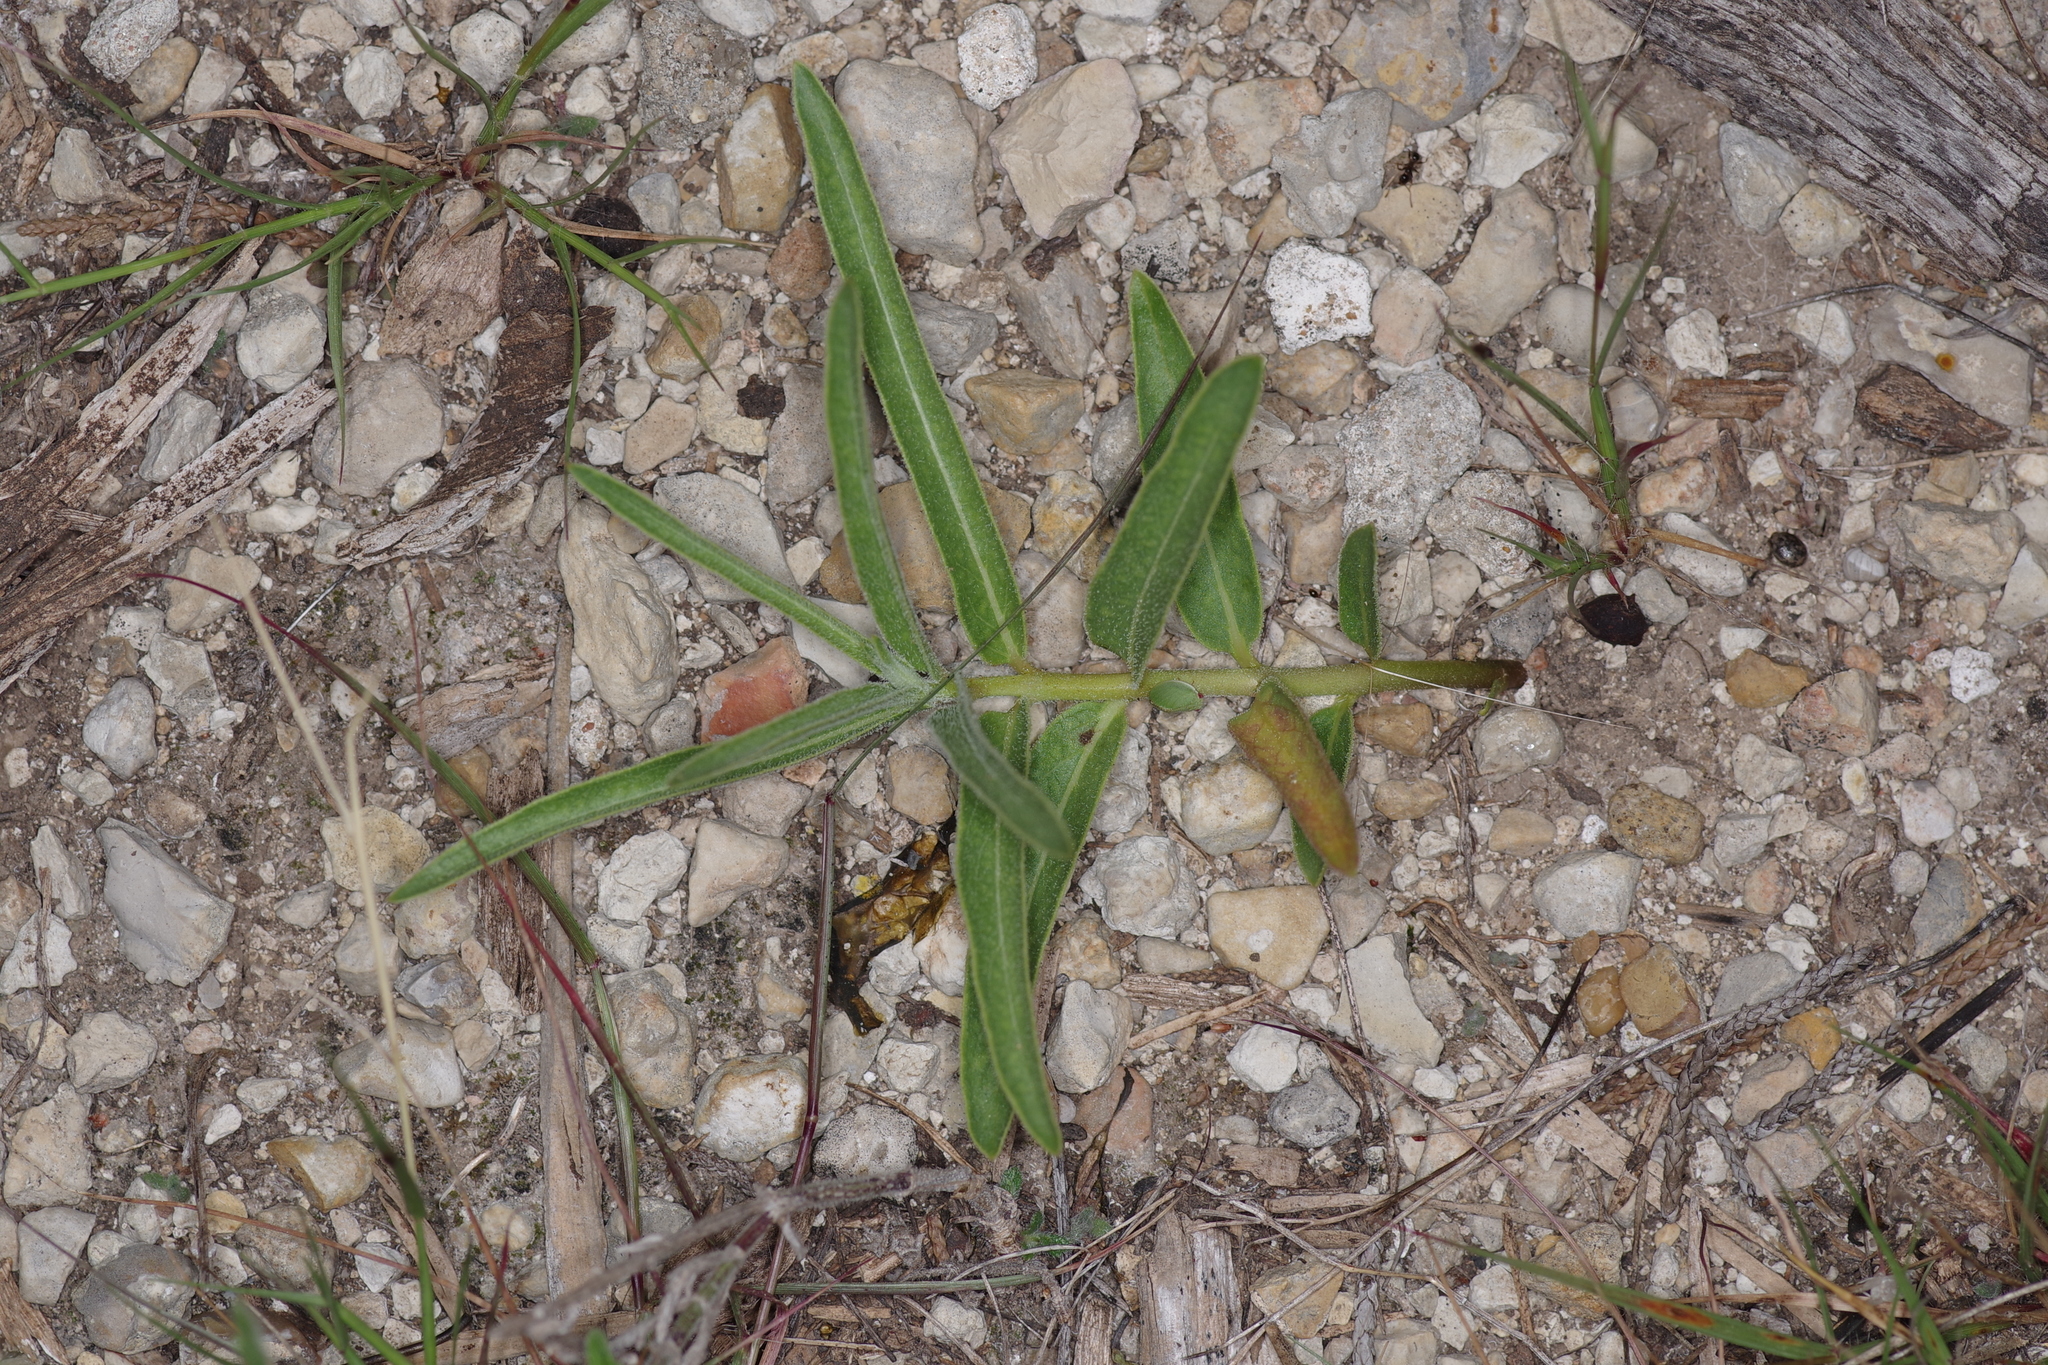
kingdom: Plantae
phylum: Tracheophyta
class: Magnoliopsida
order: Gentianales
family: Apocynaceae
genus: Asclepias
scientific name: Asclepias asperula
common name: Antelope horns
